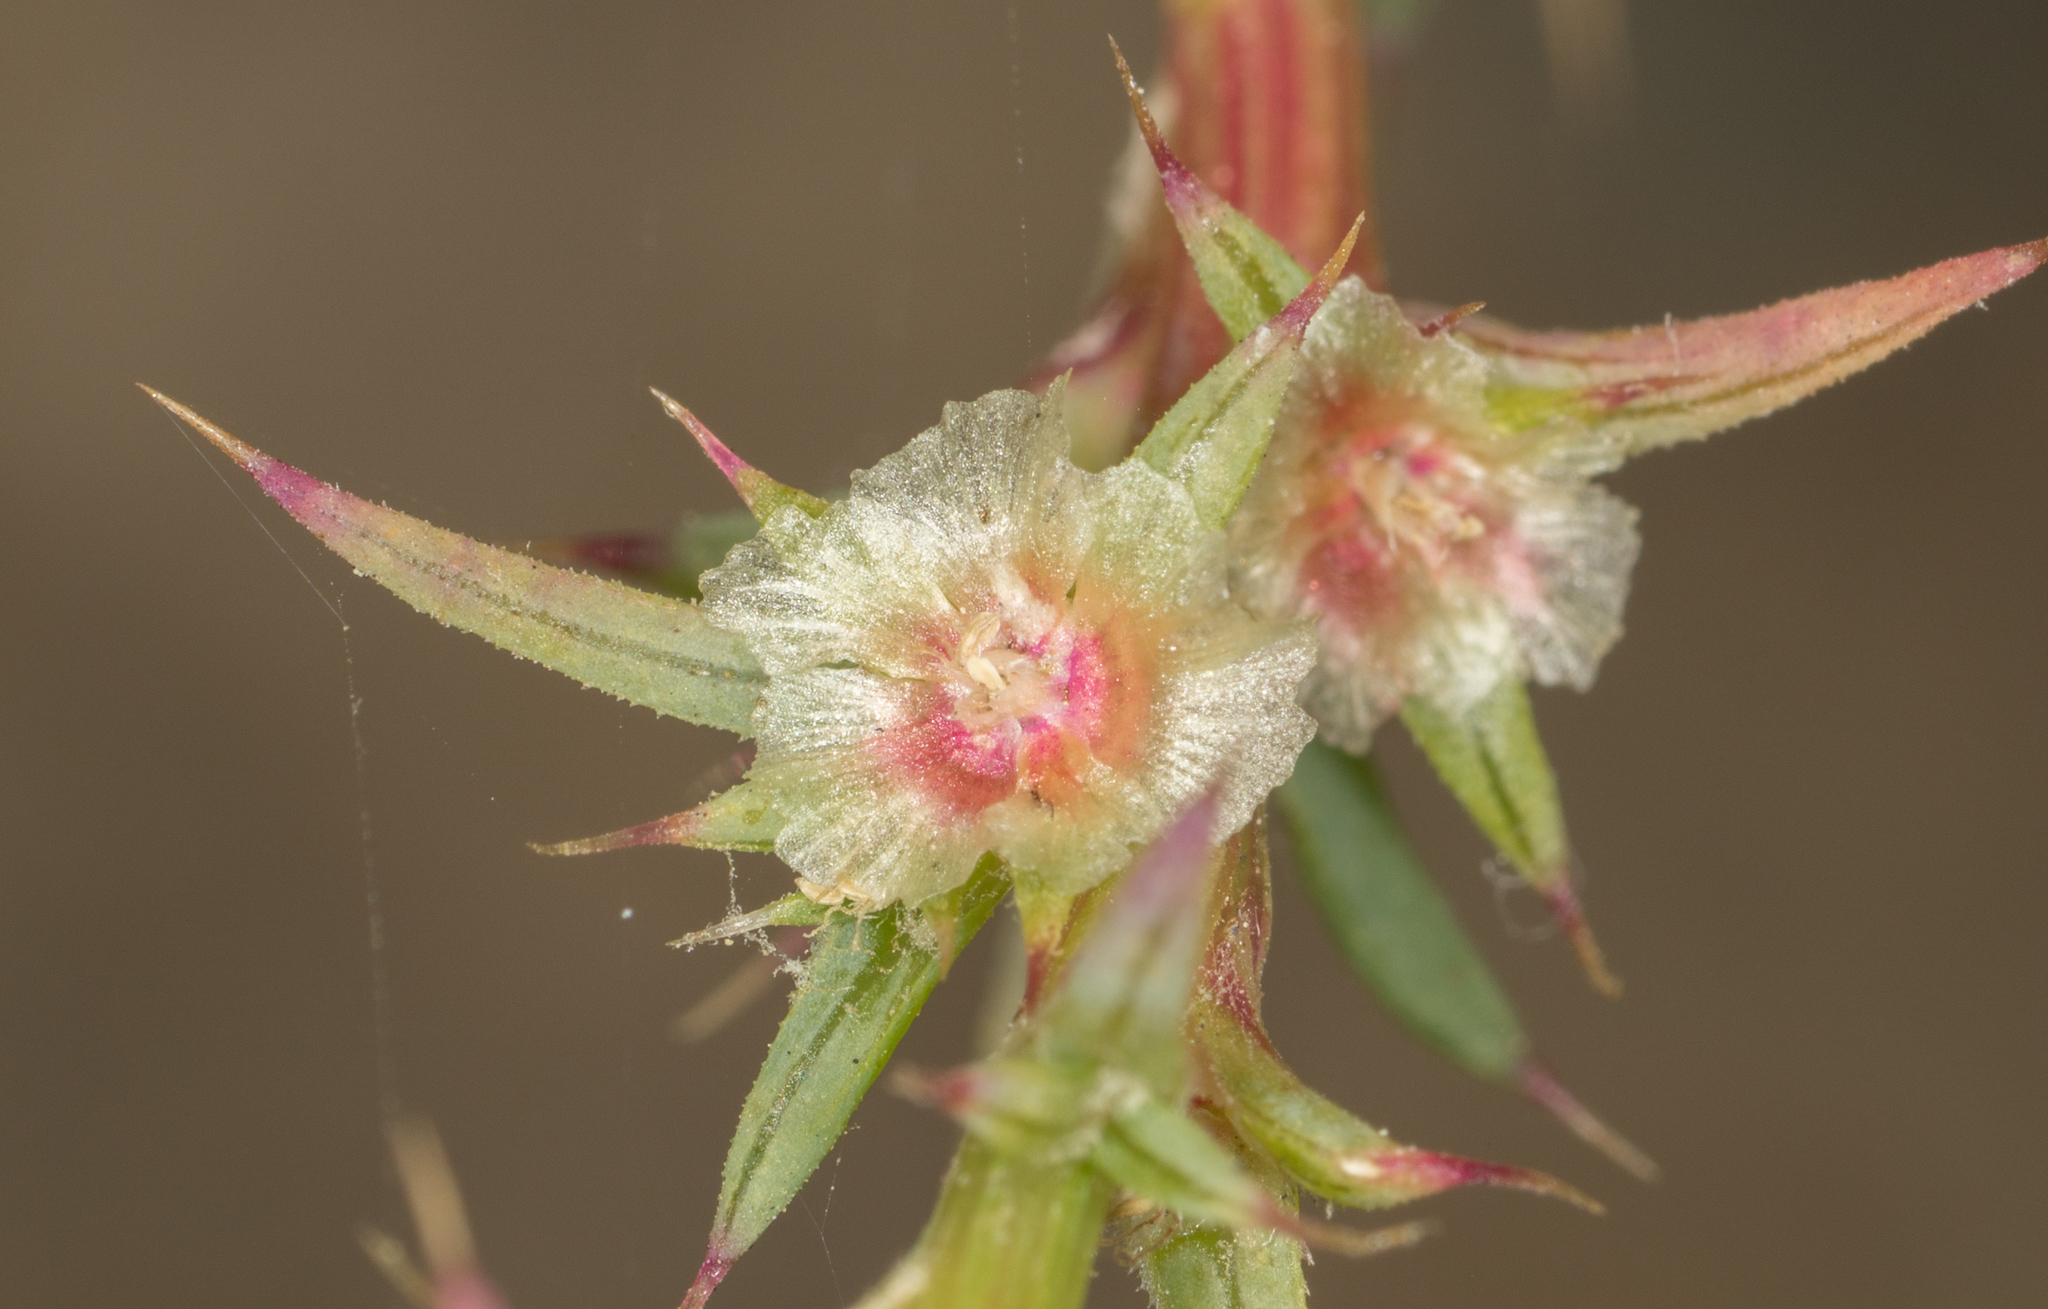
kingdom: Plantae
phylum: Tracheophyta
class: Magnoliopsida
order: Caryophyllales
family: Amaranthaceae
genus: Salsola
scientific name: Salsola australis
